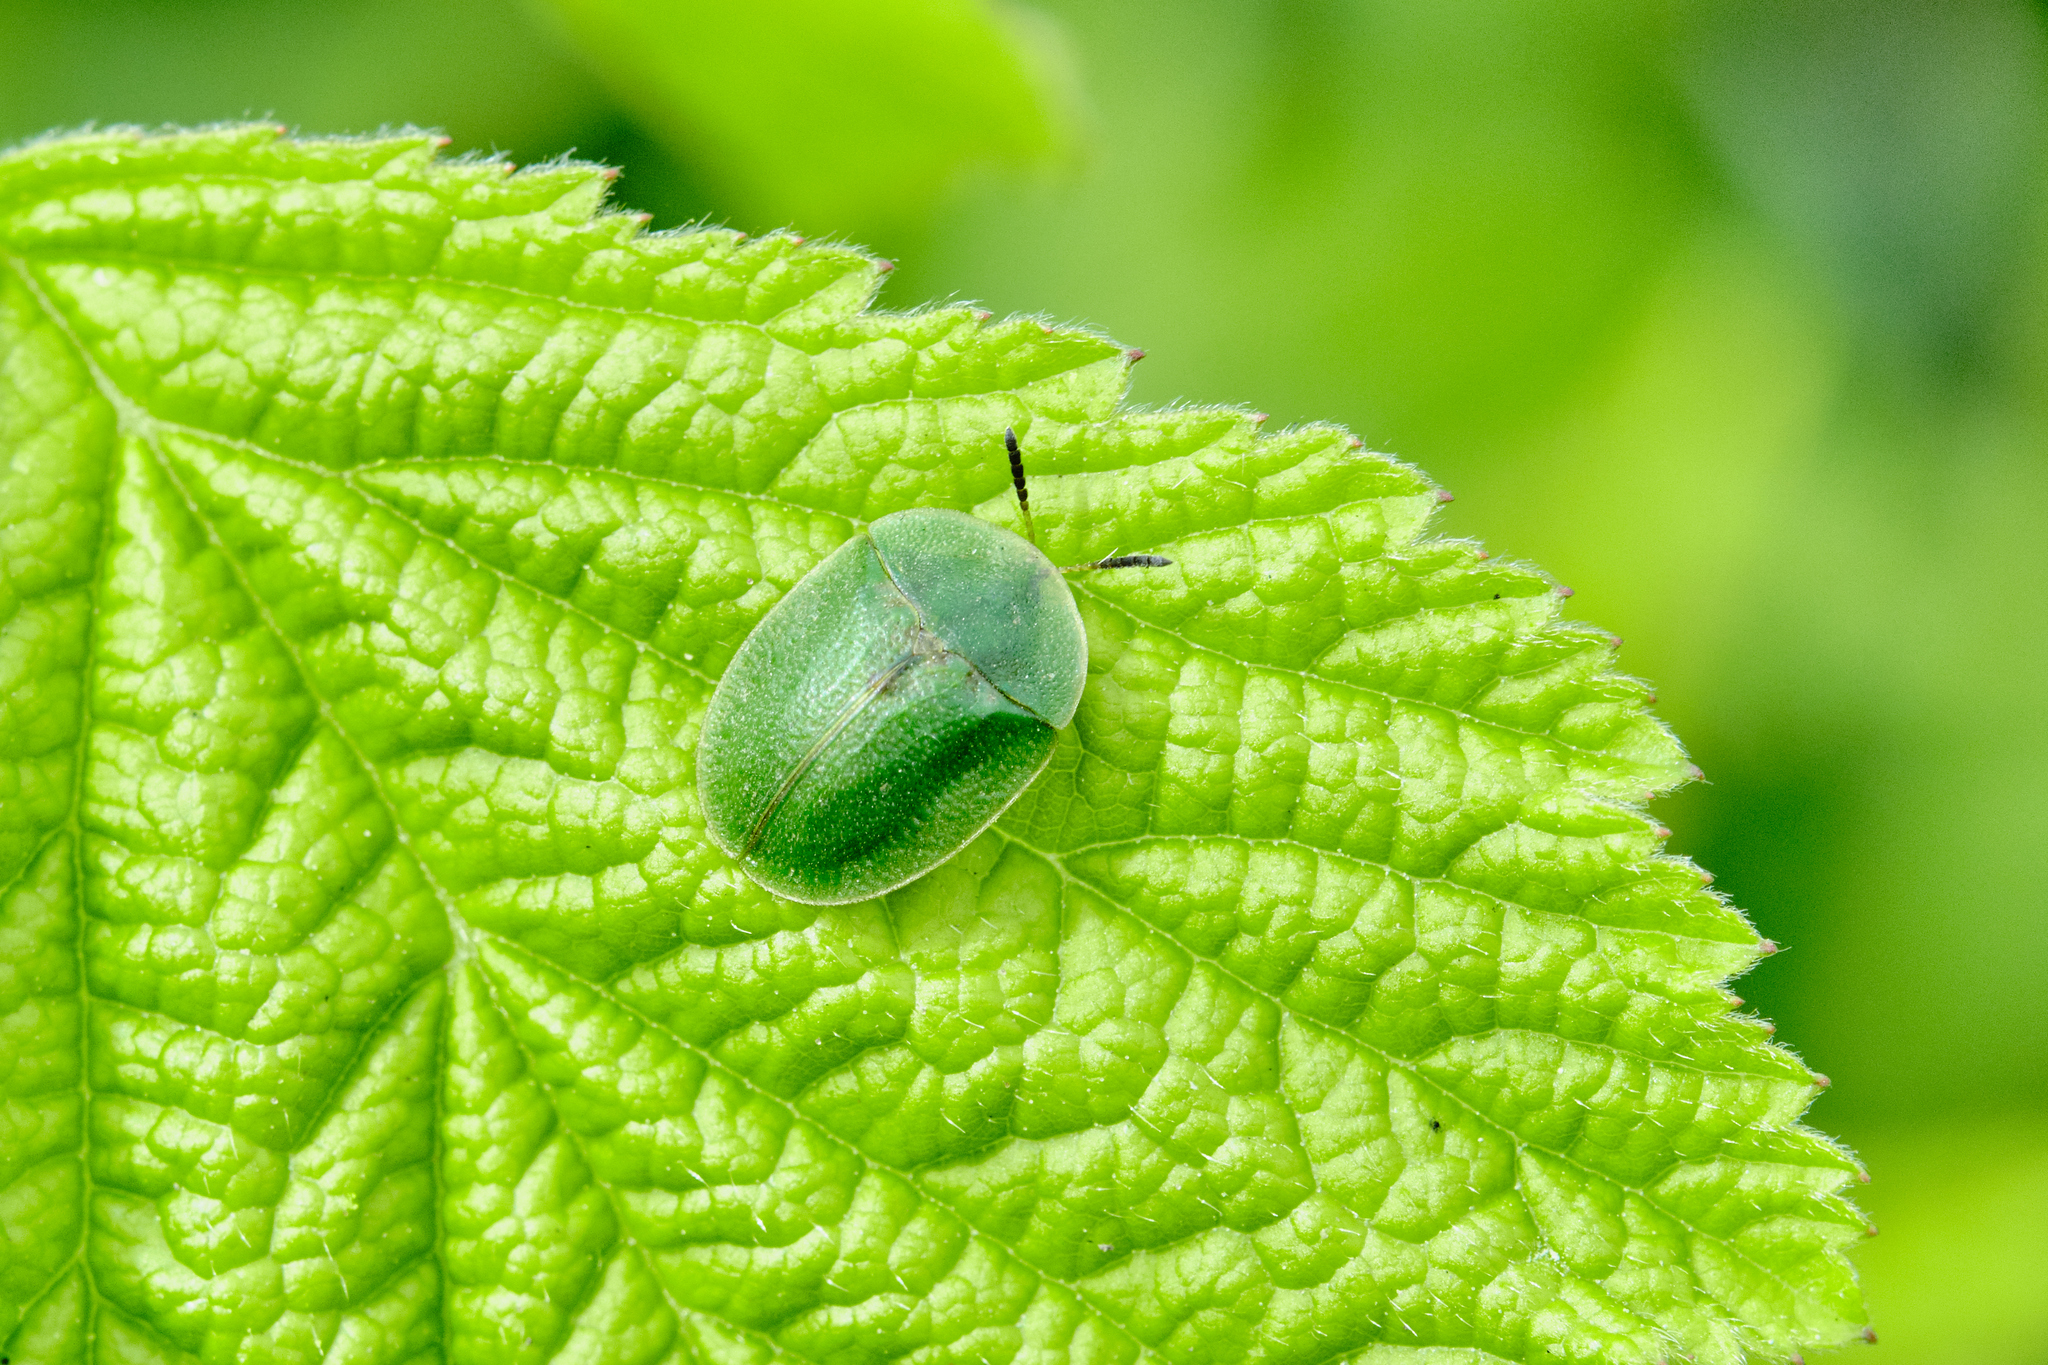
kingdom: Animalia
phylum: Arthropoda
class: Insecta
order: Coleoptera
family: Chrysomelidae
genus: Cassida
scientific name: Cassida rubiginosa
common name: Thistle tortoise beetle
